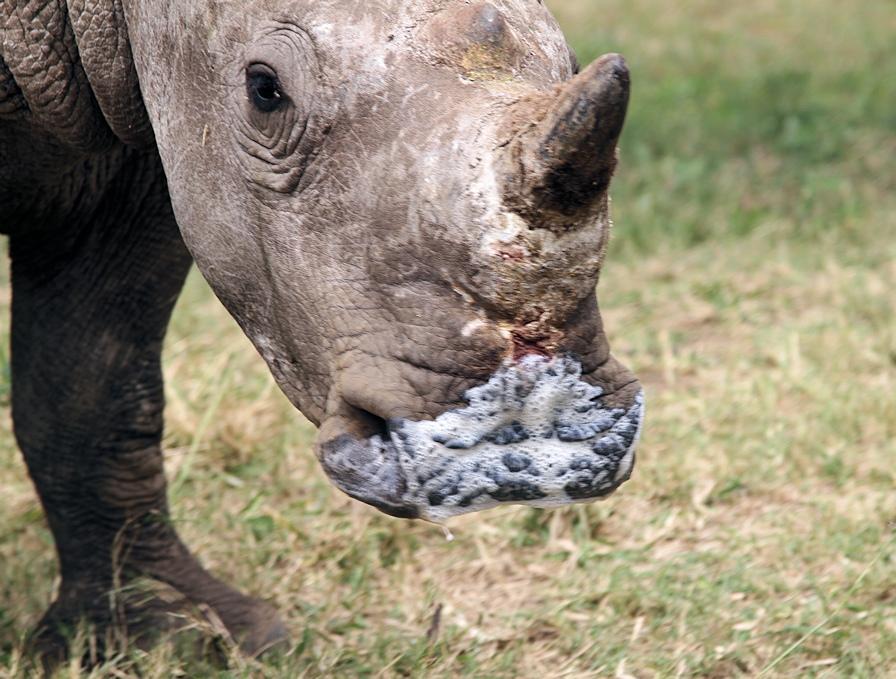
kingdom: Animalia
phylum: Chordata
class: Mammalia
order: Perissodactyla
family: Rhinocerotidae
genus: Ceratotherium
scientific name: Ceratotherium simum
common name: White rhinoceros
